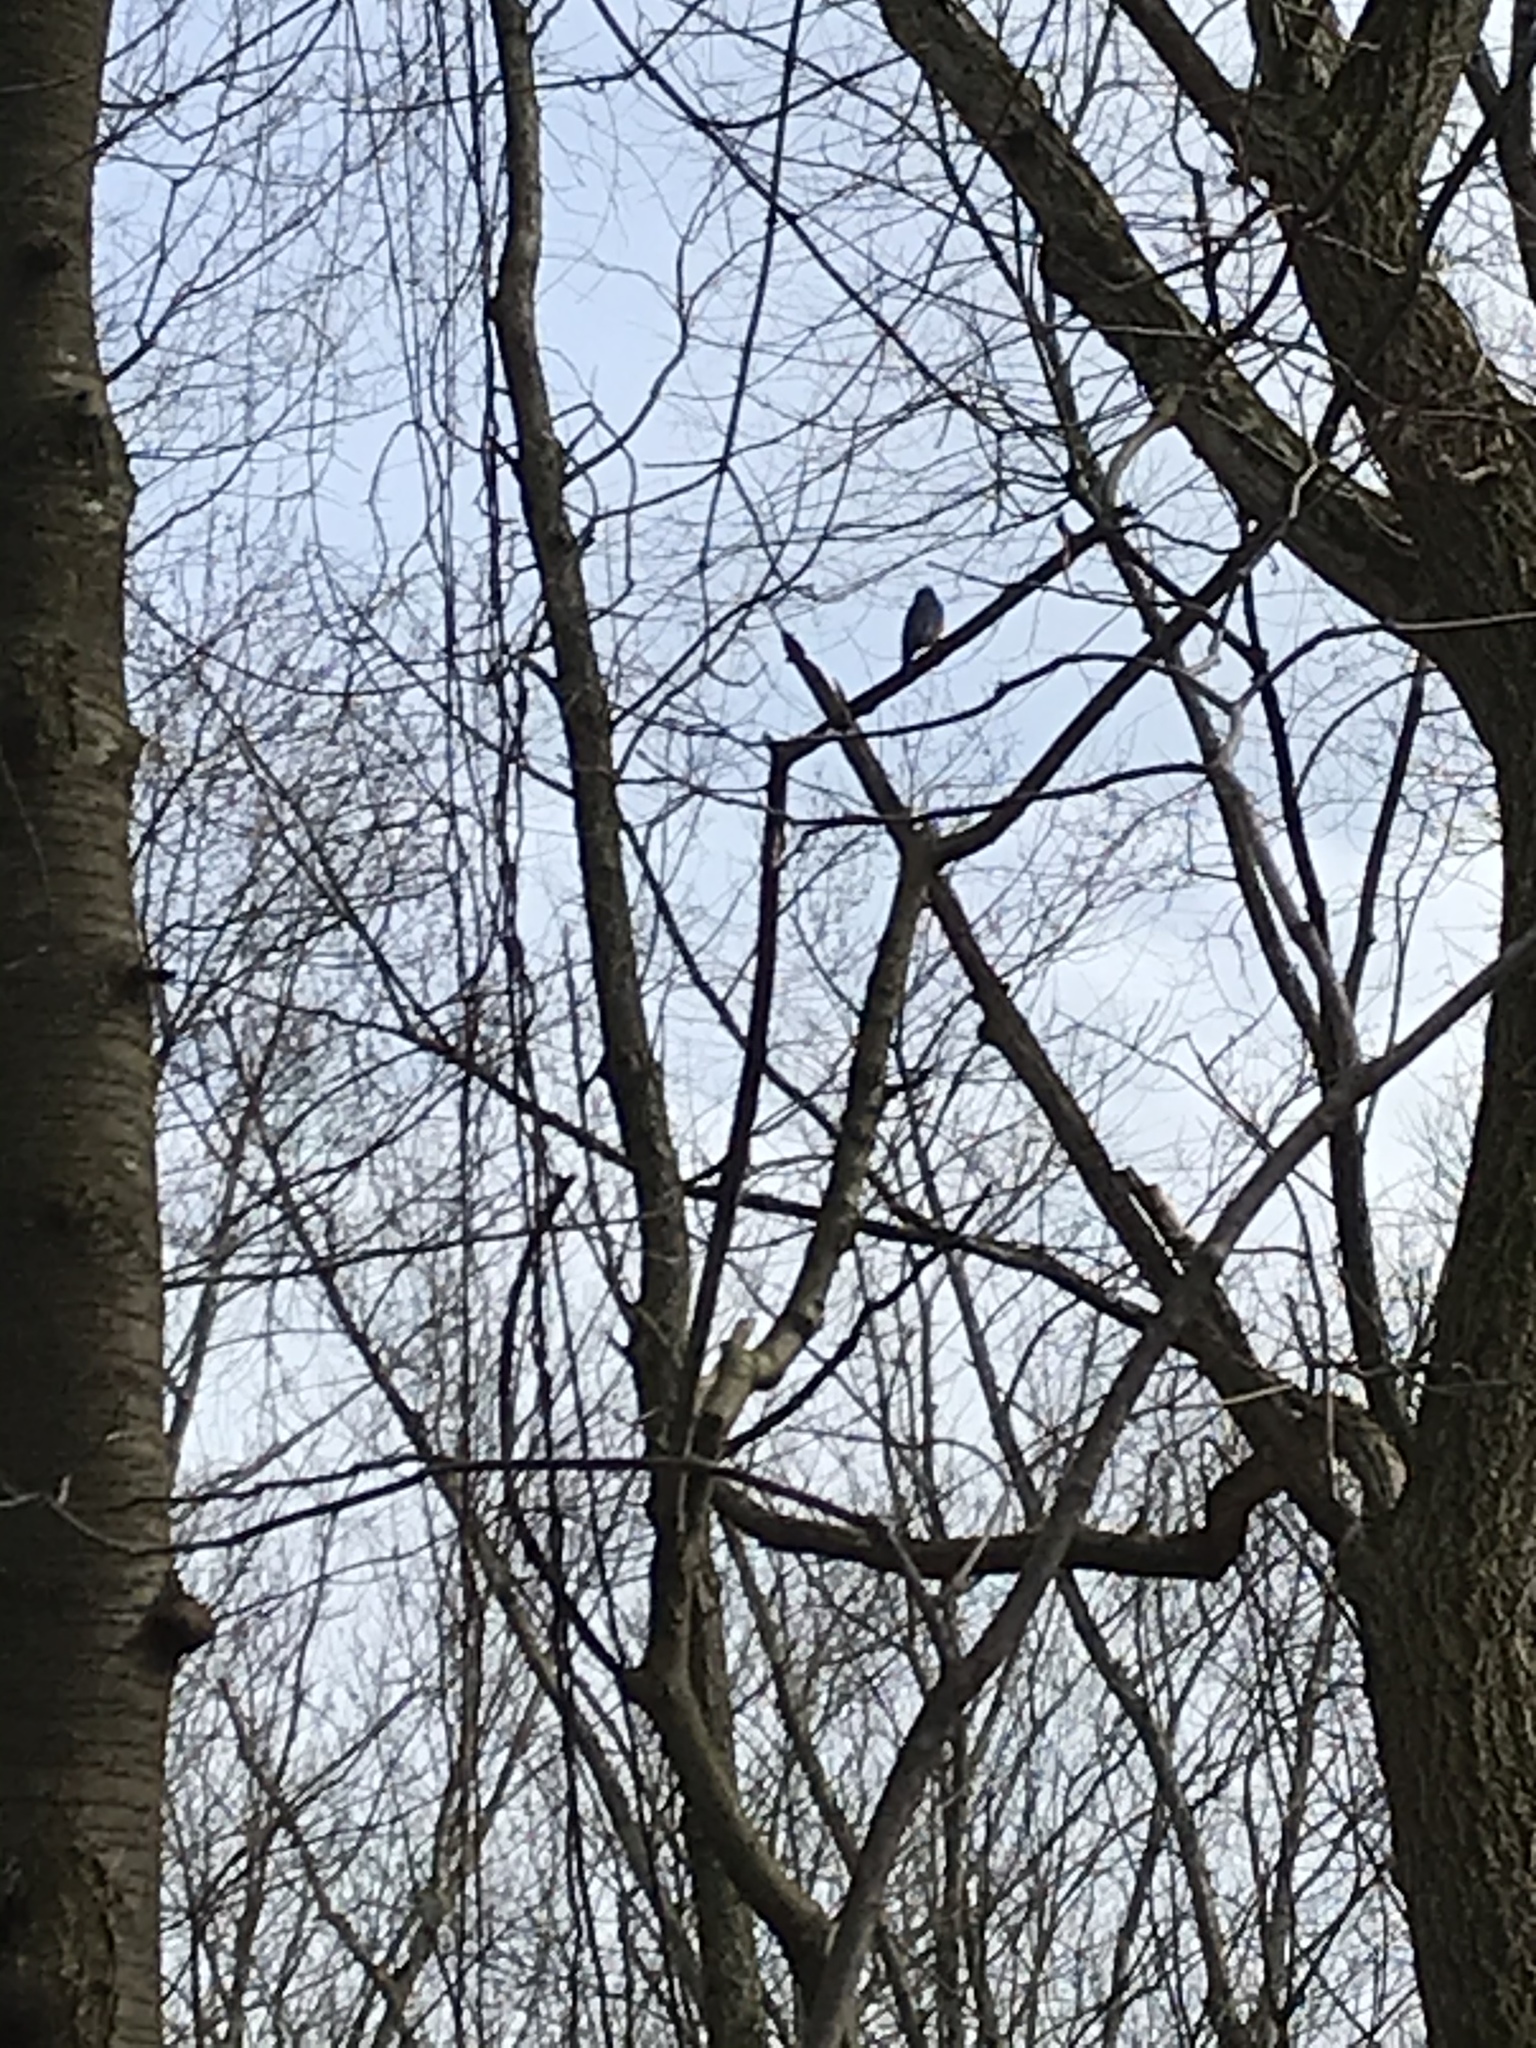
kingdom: Animalia
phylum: Chordata
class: Aves
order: Passeriformes
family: Turdidae
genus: Sialia
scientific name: Sialia sialis
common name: Eastern bluebird
